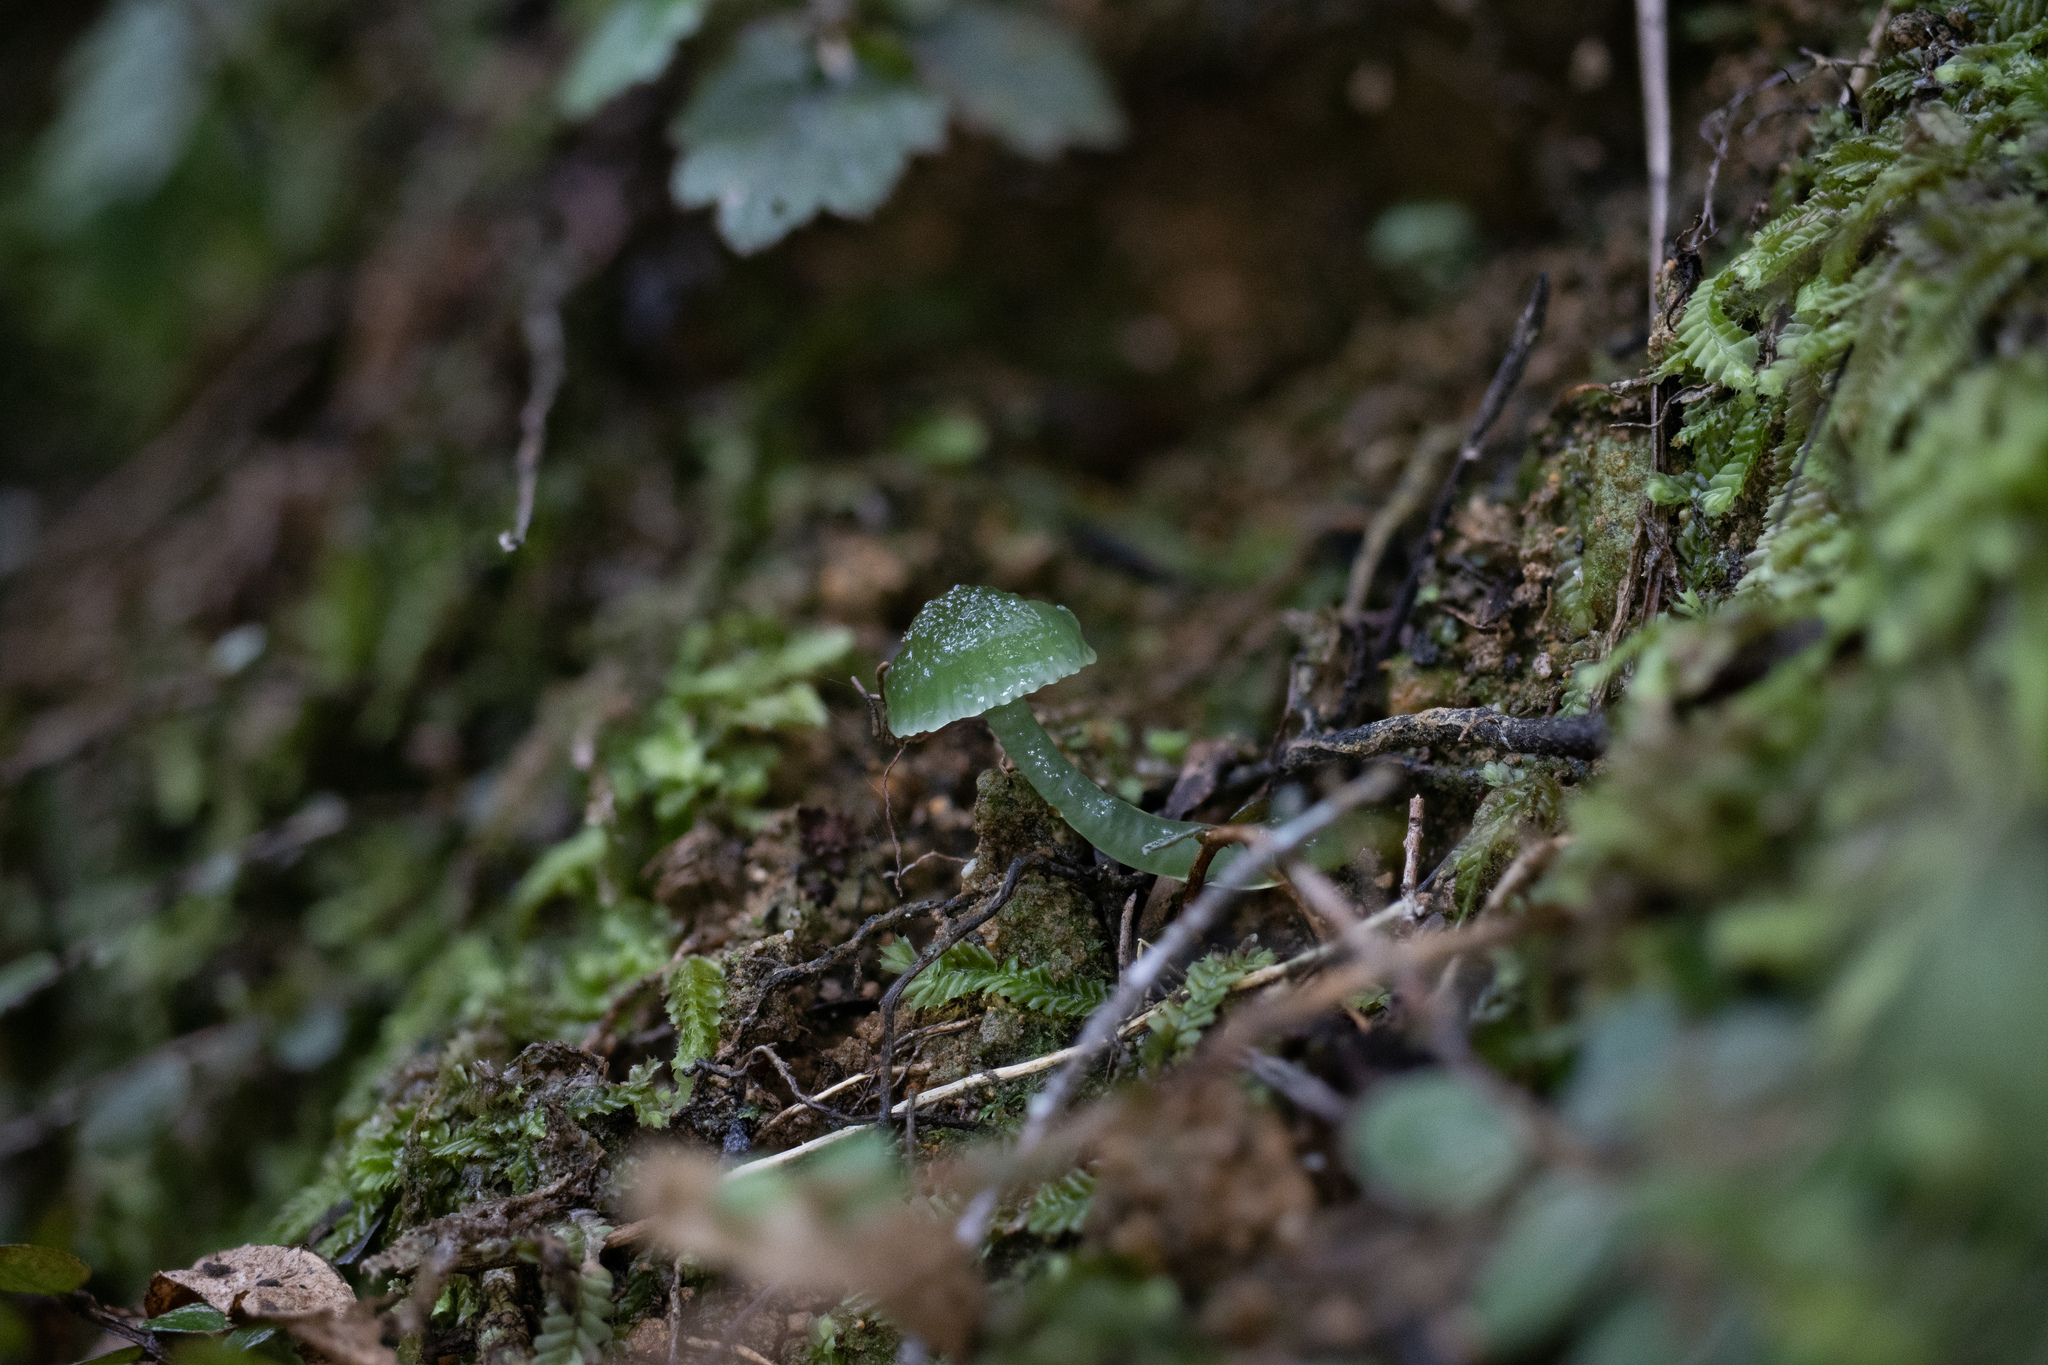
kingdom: Fungi
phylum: Basidiomycota
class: Agaricomycetes
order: Agaricales
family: Hygrophoraceae
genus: Gliophorus
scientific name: Gliophorus graminicolor
